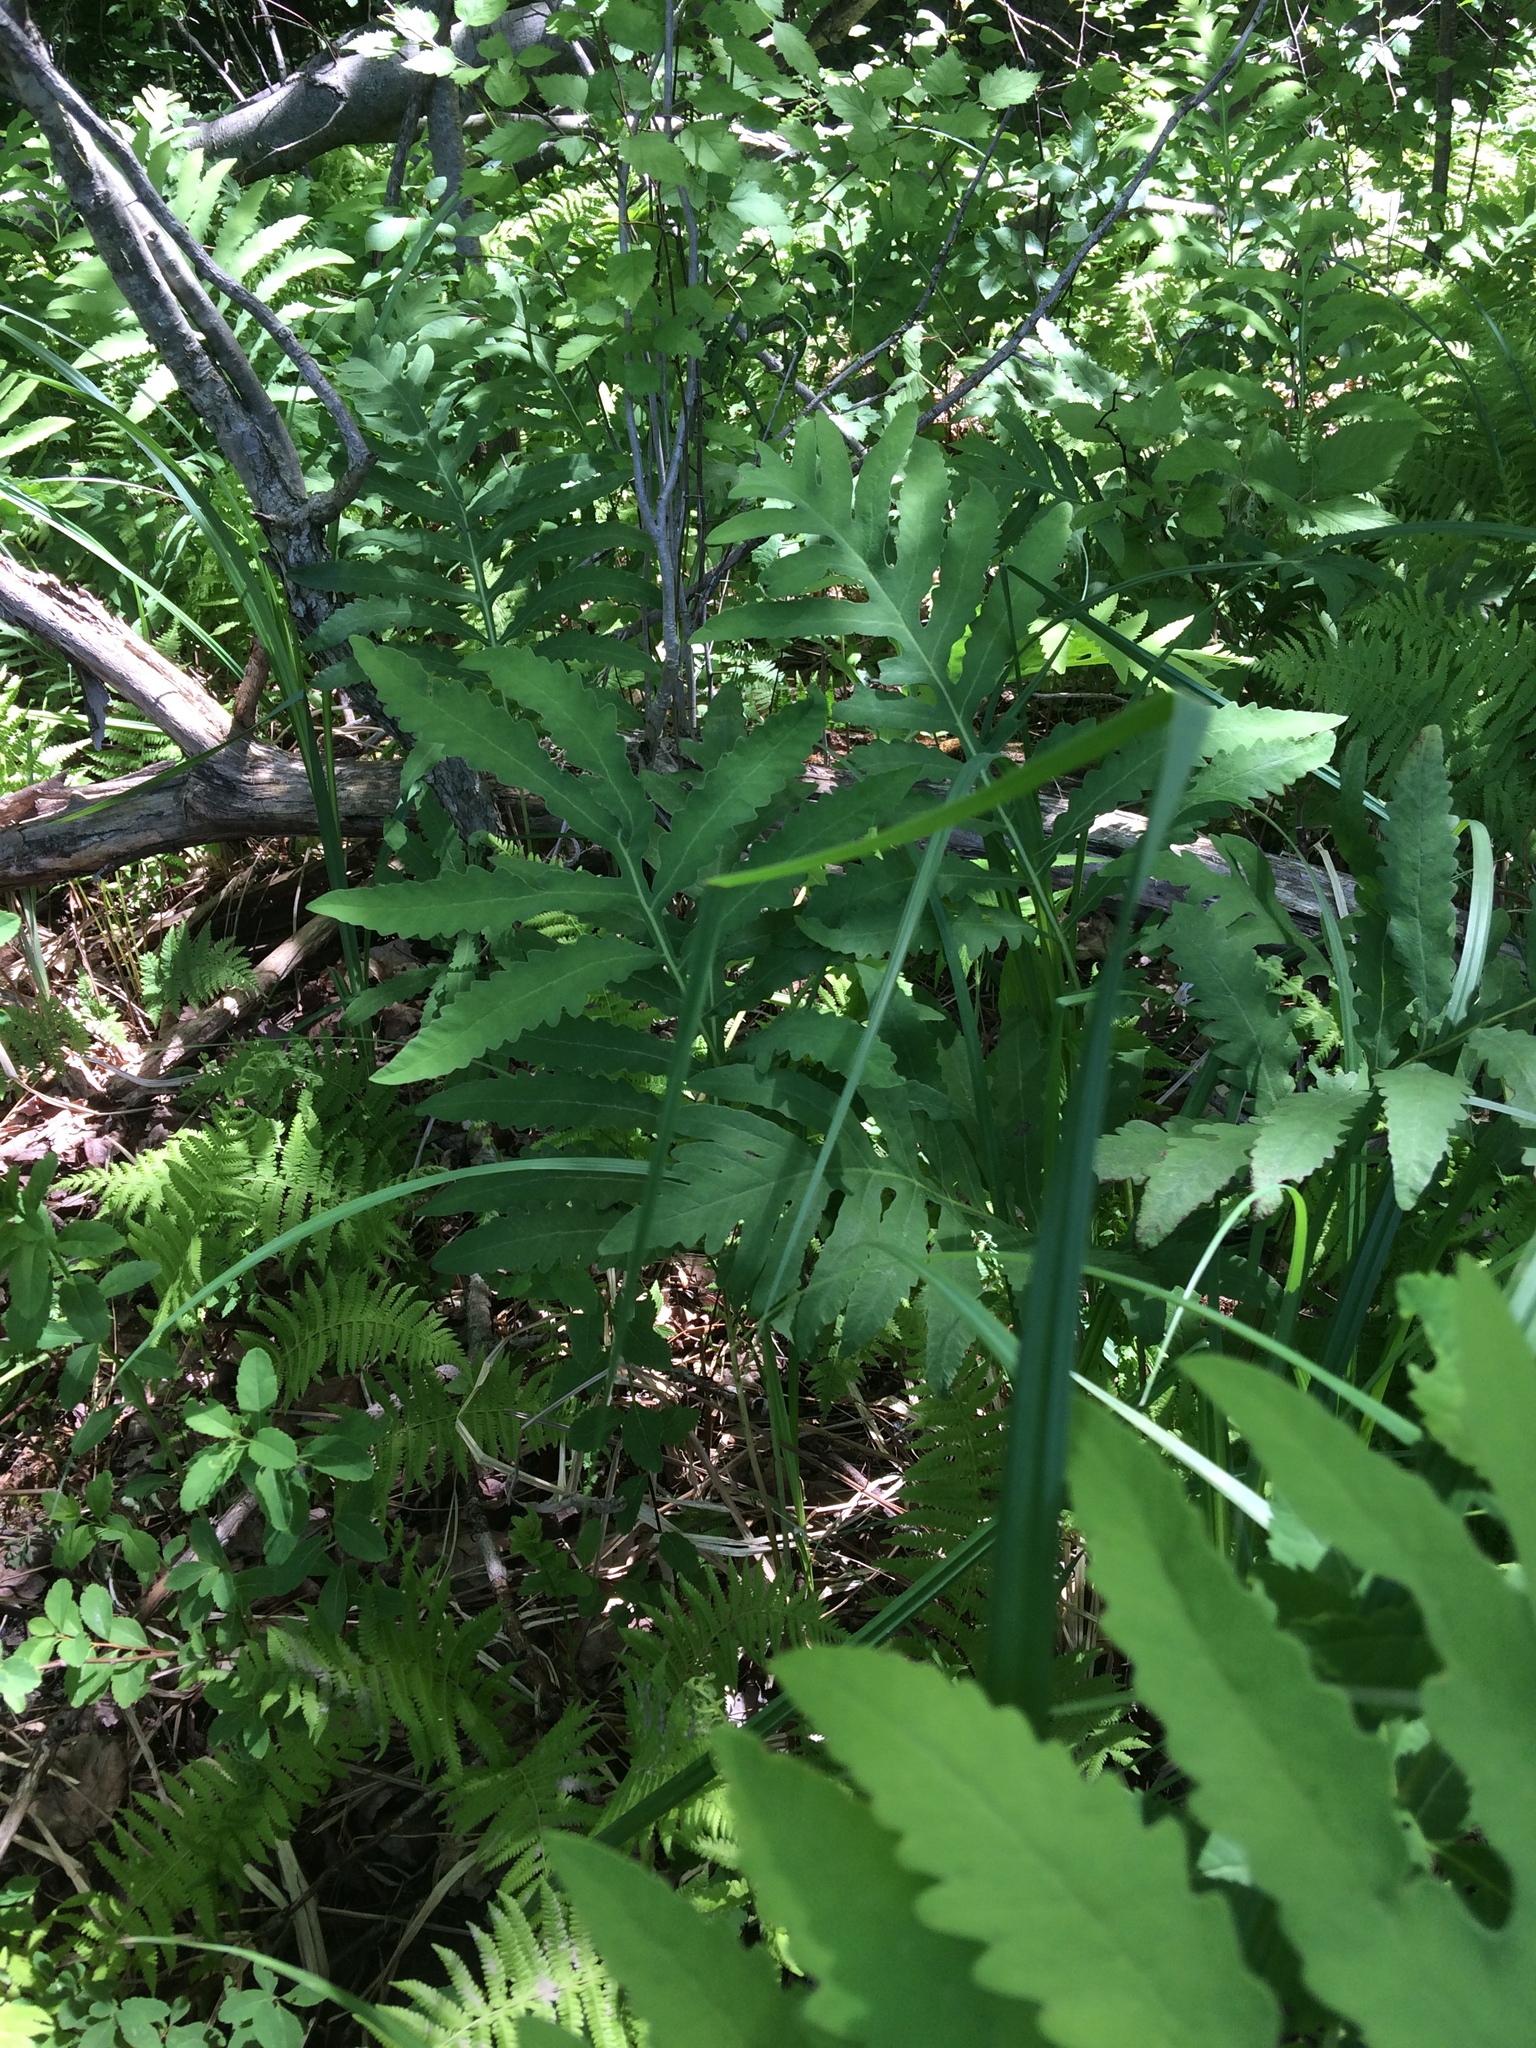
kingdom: Plantae
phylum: Tracheophyta
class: Polypodiopsida
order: Polypodiales
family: Onocleaceae
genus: Onoclea
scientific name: Onoclea sensibilis
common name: Sensitive fern
